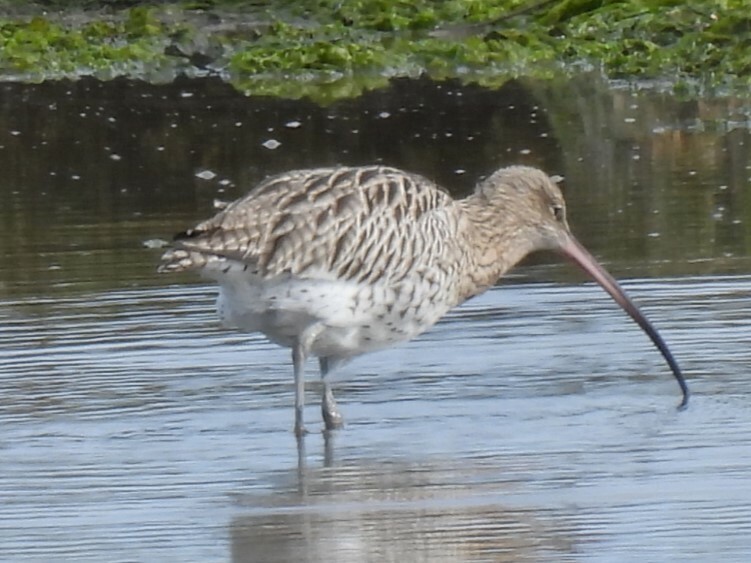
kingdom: Animalia
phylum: Chordata
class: Aves
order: Charadriiformes
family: Scolopacidae
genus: Numenius
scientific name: Numenius arquata
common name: Eurasian curlew
